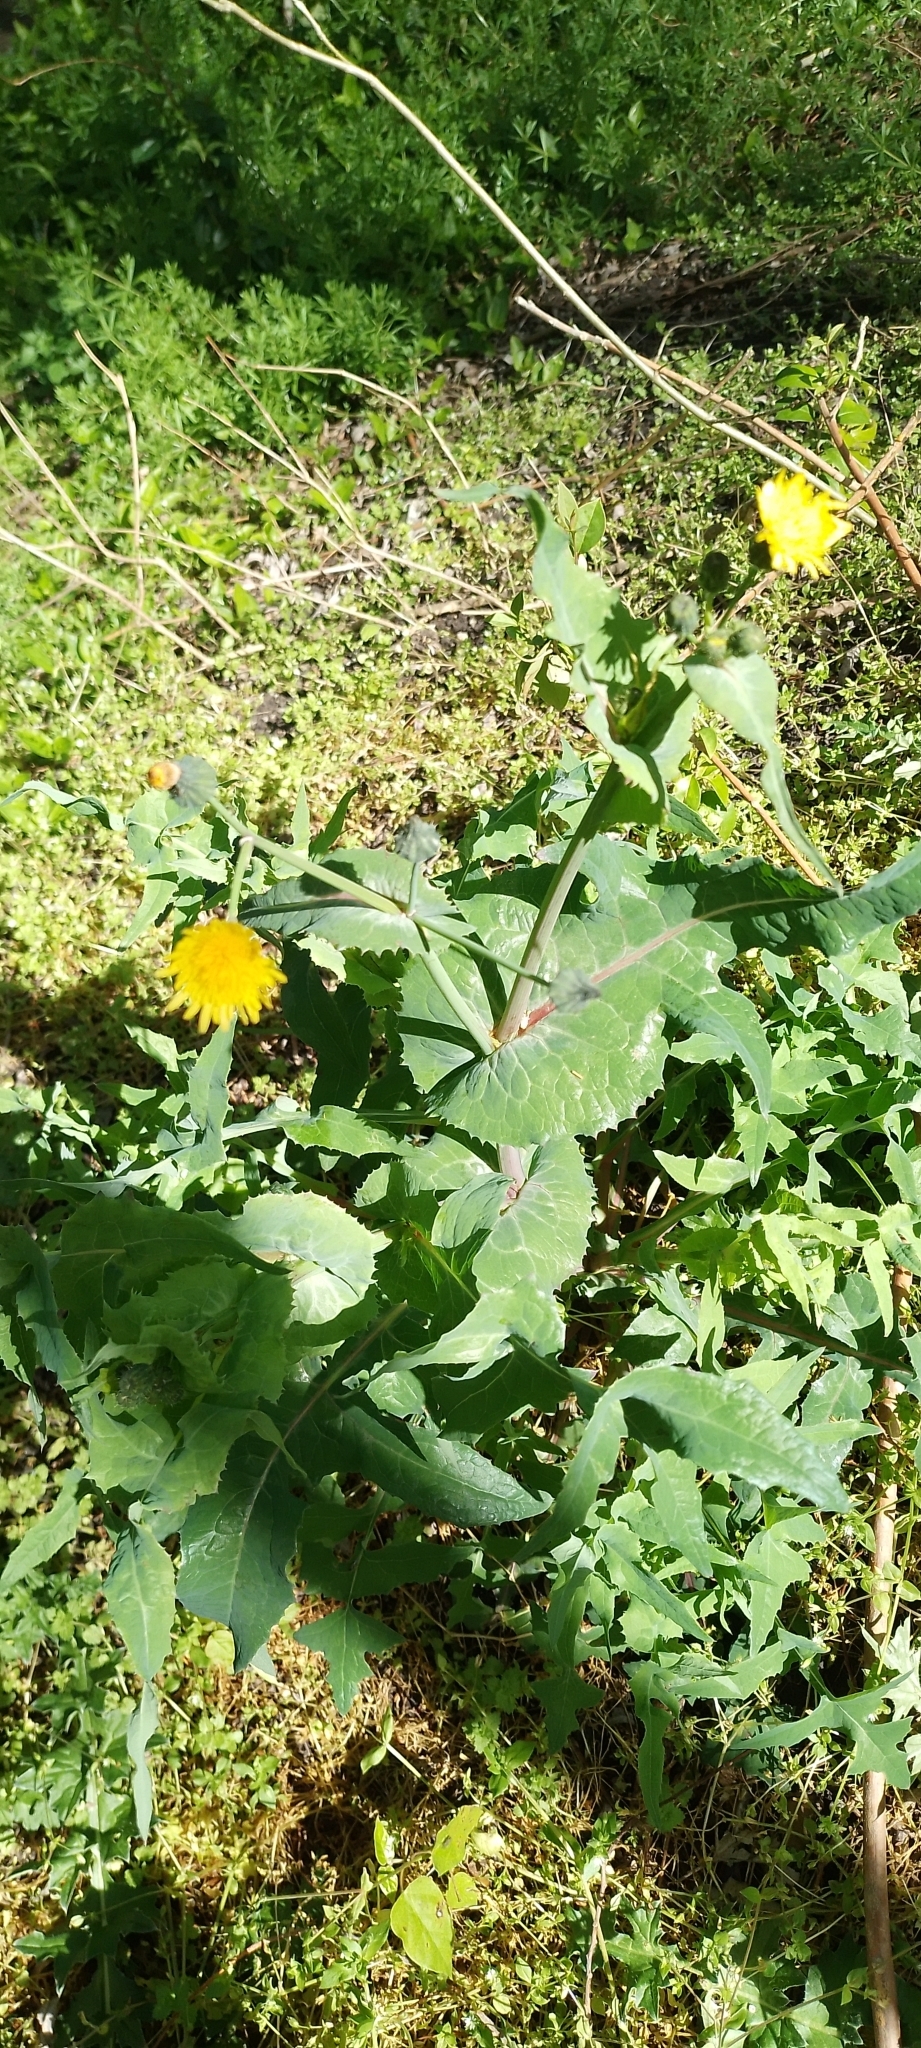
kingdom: Plantae
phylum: Tracheophyta
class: Magnoliopsida
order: Asterales
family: Asteraceae
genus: Sonchus
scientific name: Sonchus oleraceus
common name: Common sowthistle
